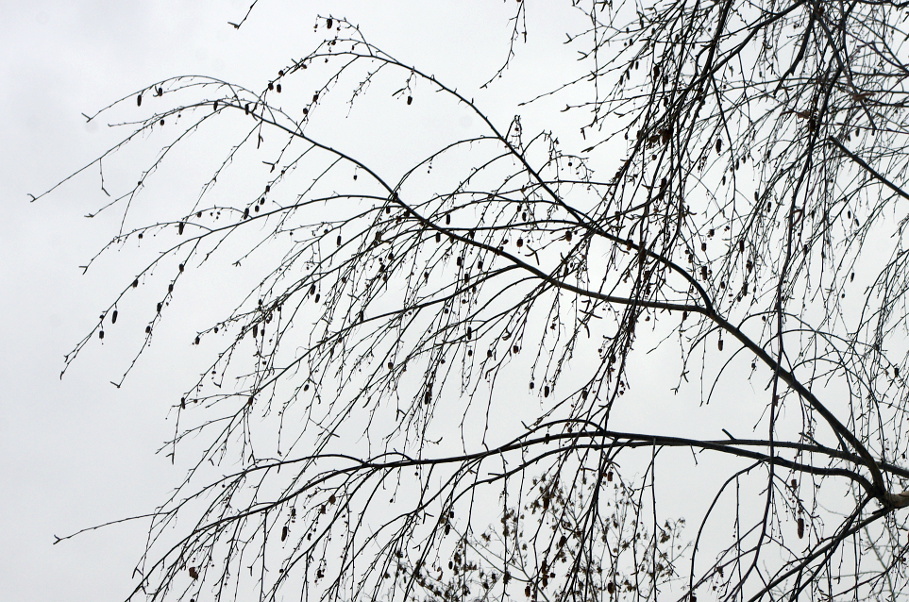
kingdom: Plantae
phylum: Tracheophyta
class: Magnoliopsida
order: Fagales
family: Betulaceae
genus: Betula
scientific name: Betula pendula
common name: Silver birch
